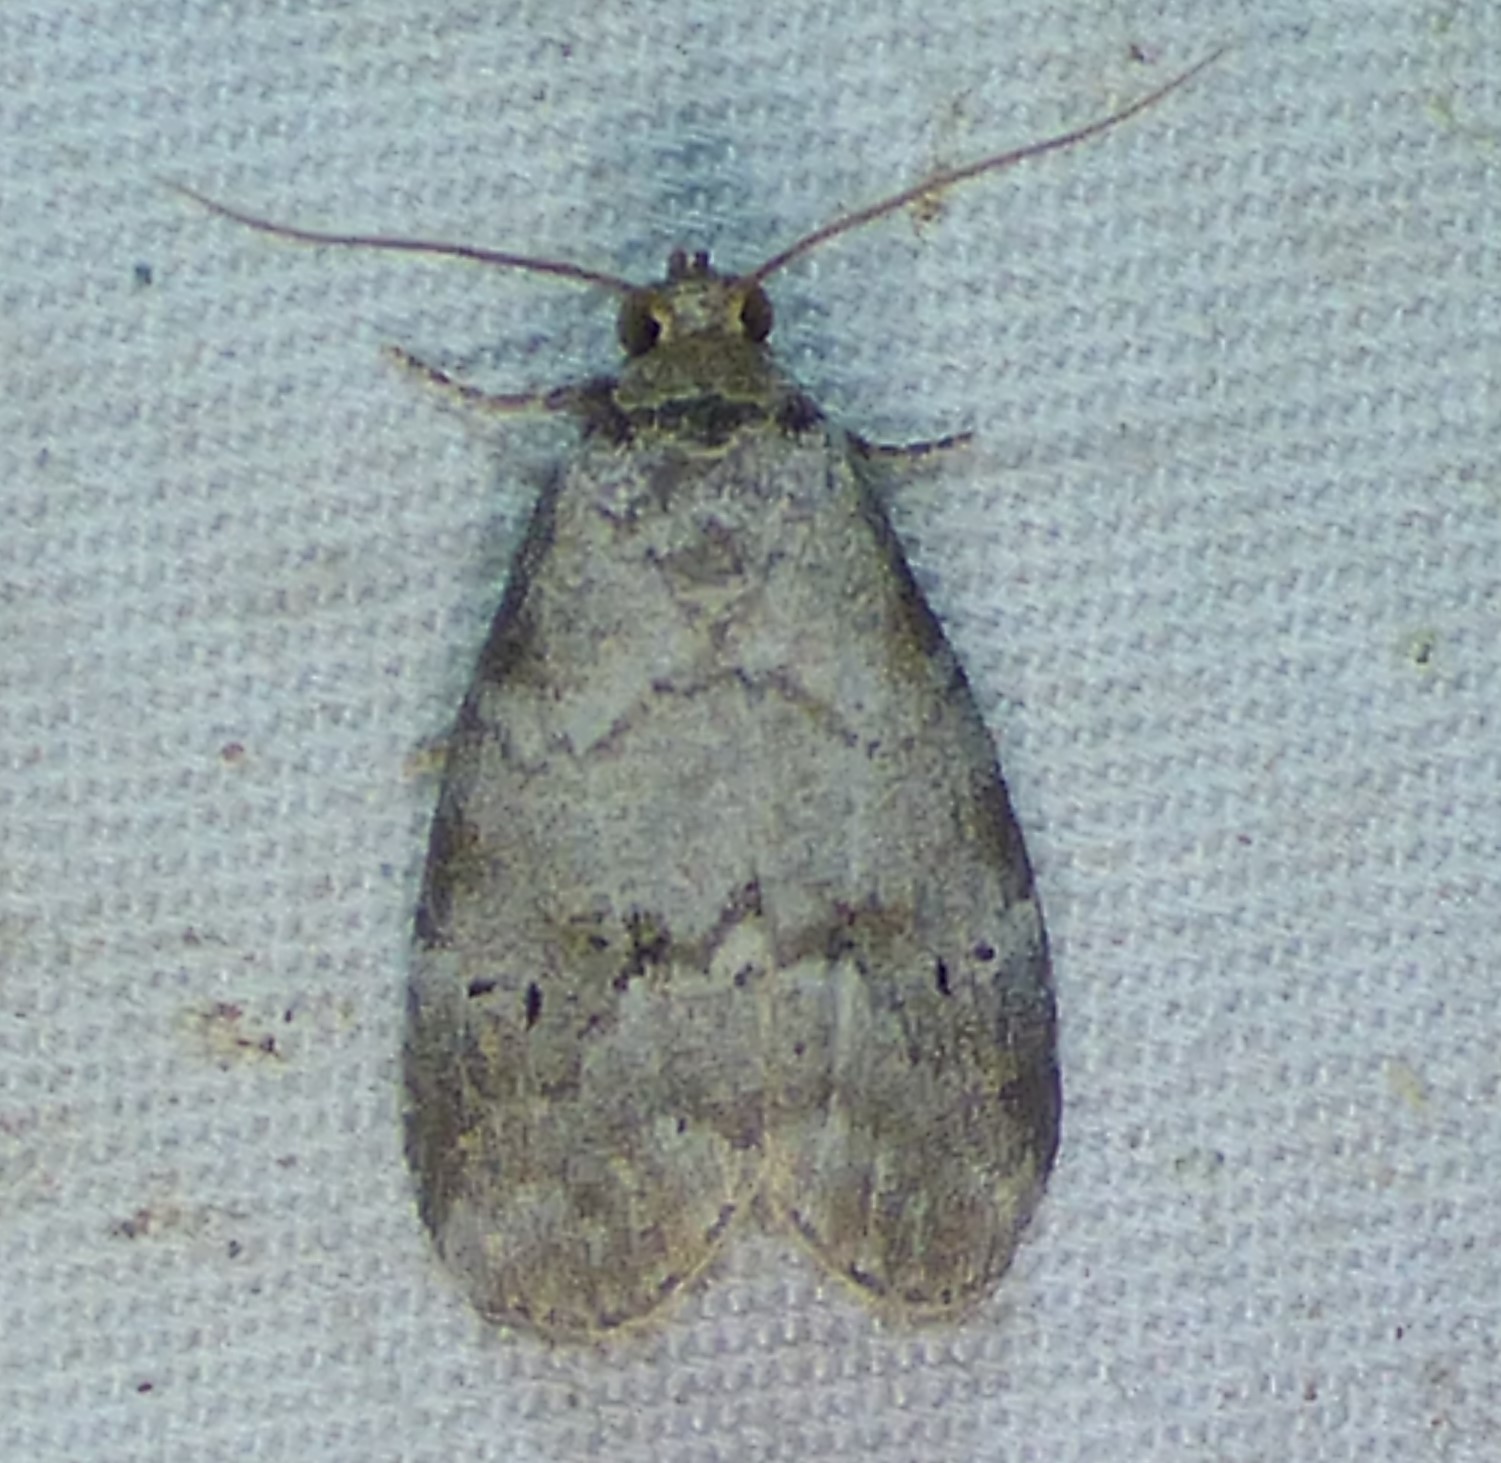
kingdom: Animalia
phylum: Arthropoda
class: Insecta
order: Lepidoptera
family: Erebidae
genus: Hyperstrotia
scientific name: Hyperstrotia pervertens
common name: Dotted graylet
